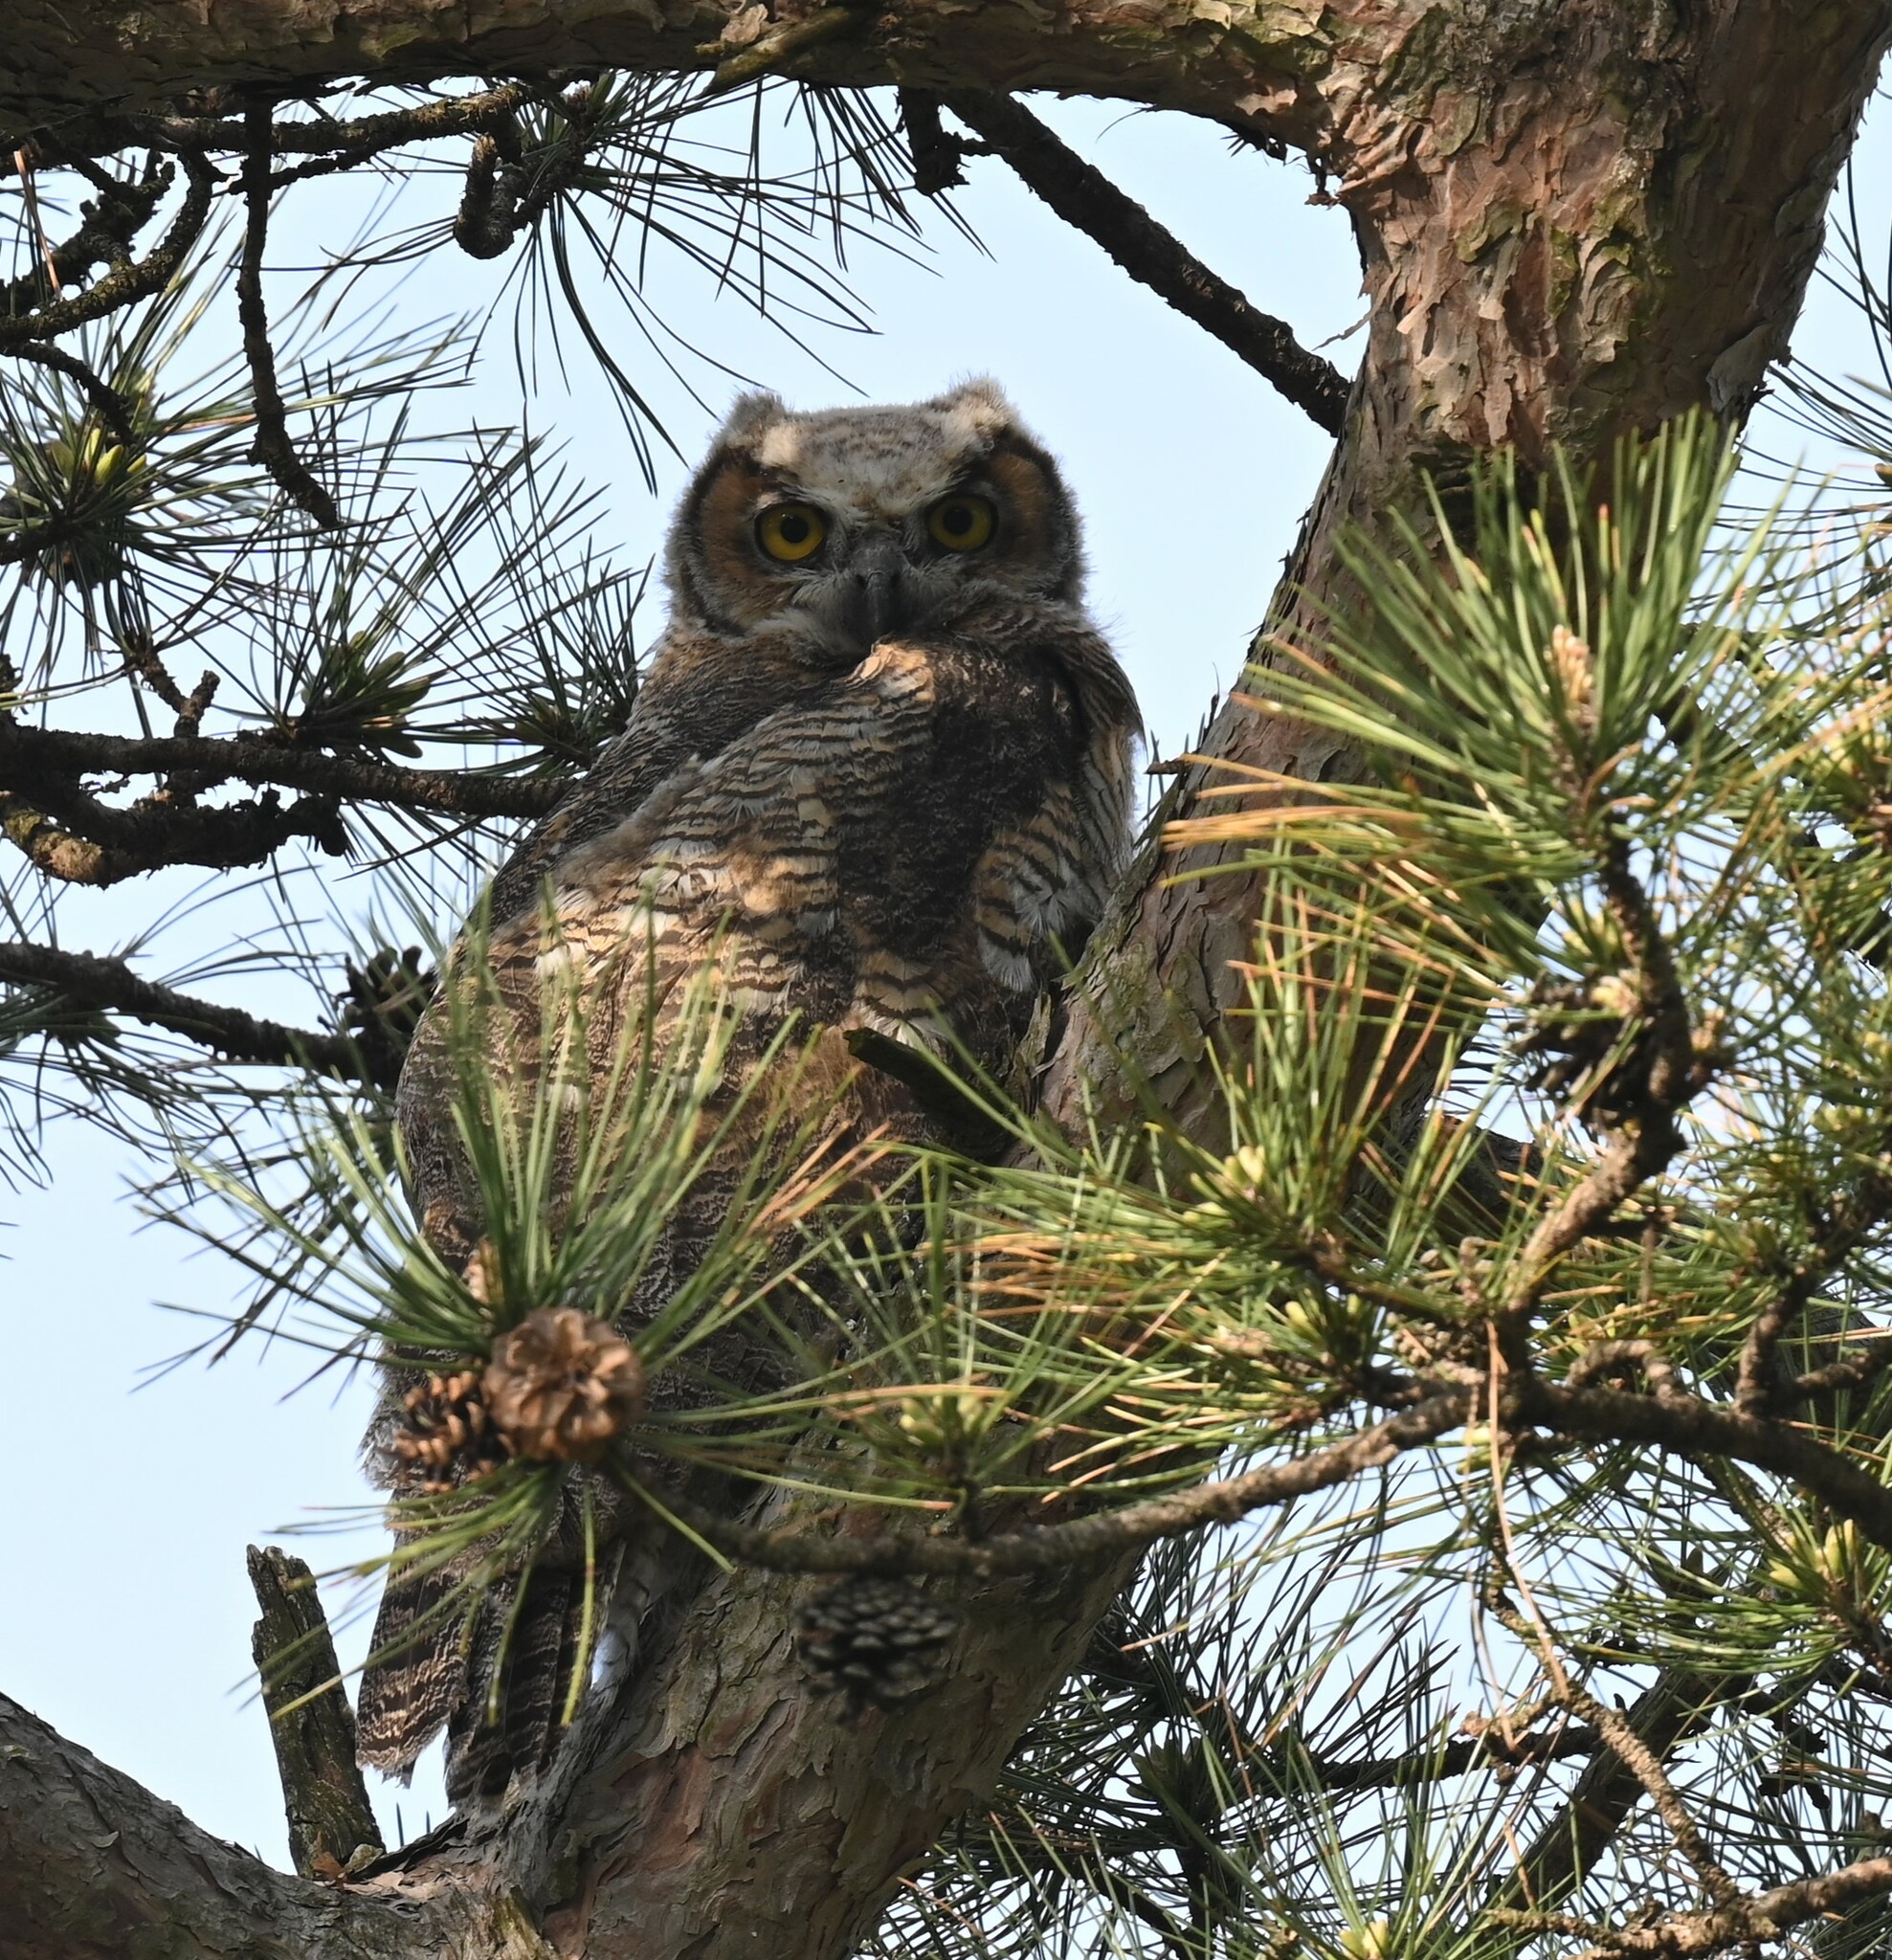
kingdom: Animalia
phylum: Chordata
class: Aves
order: Strigiformes
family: Strigidae
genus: Bubo
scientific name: Bubo virginianus
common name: Great horned owl
